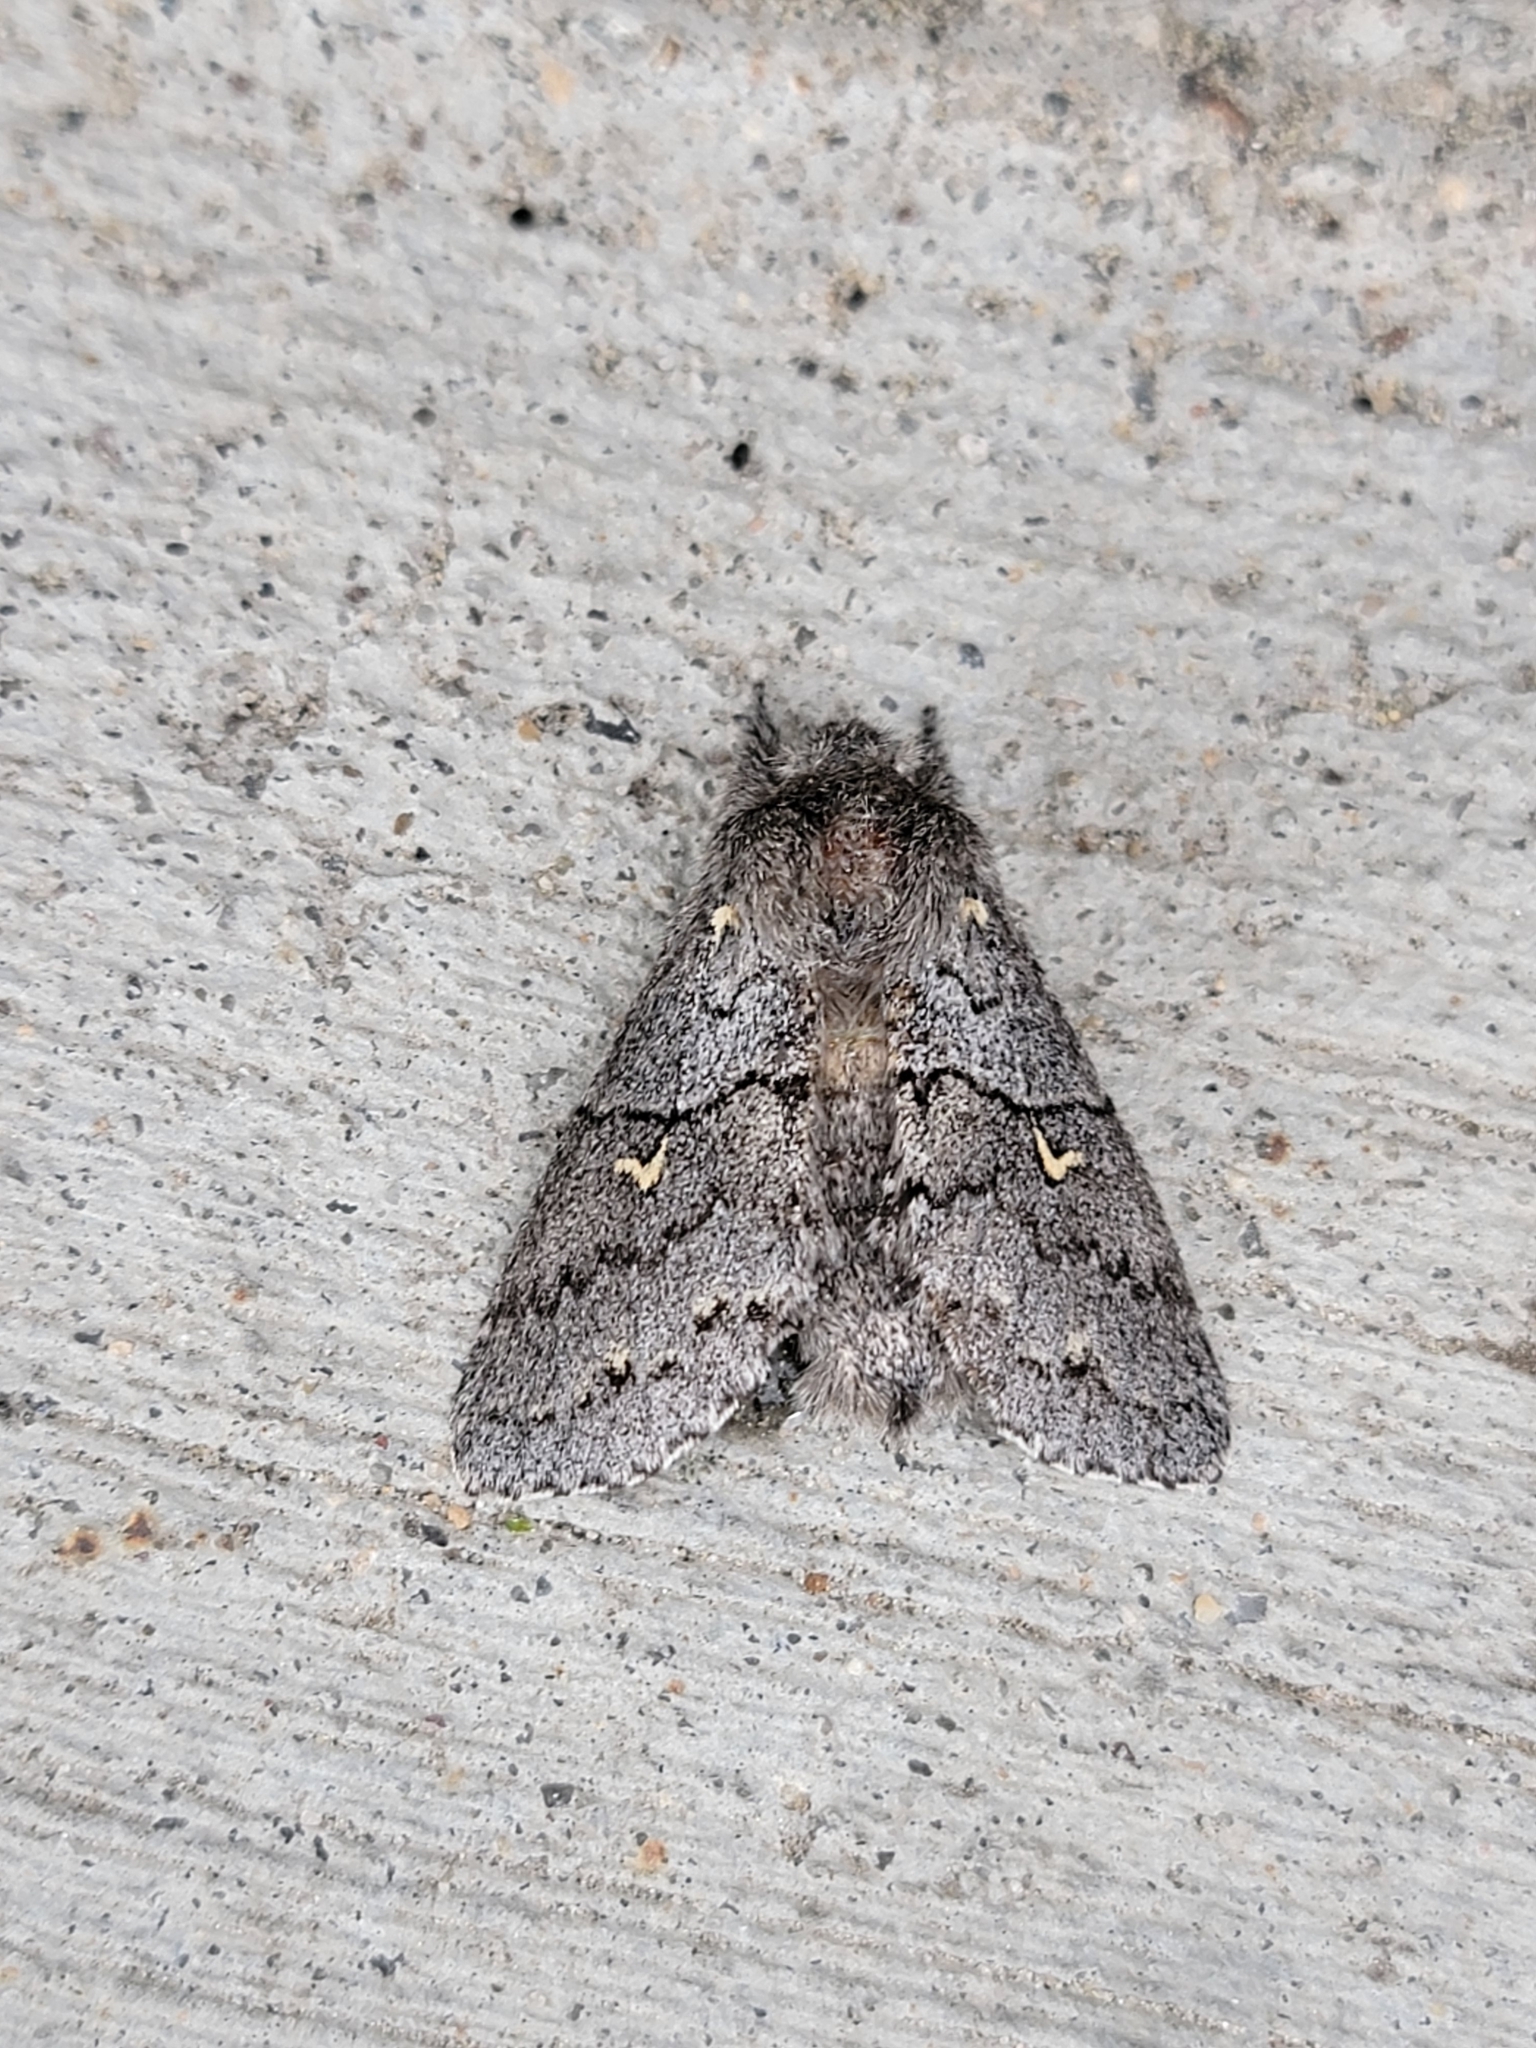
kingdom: Animalia
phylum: Arthropoda
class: Insecta
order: Lepidoptera
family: Notodontidae
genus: Gluphisia
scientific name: Gluphisia avimacula
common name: Four-spotted gluphisia moth
